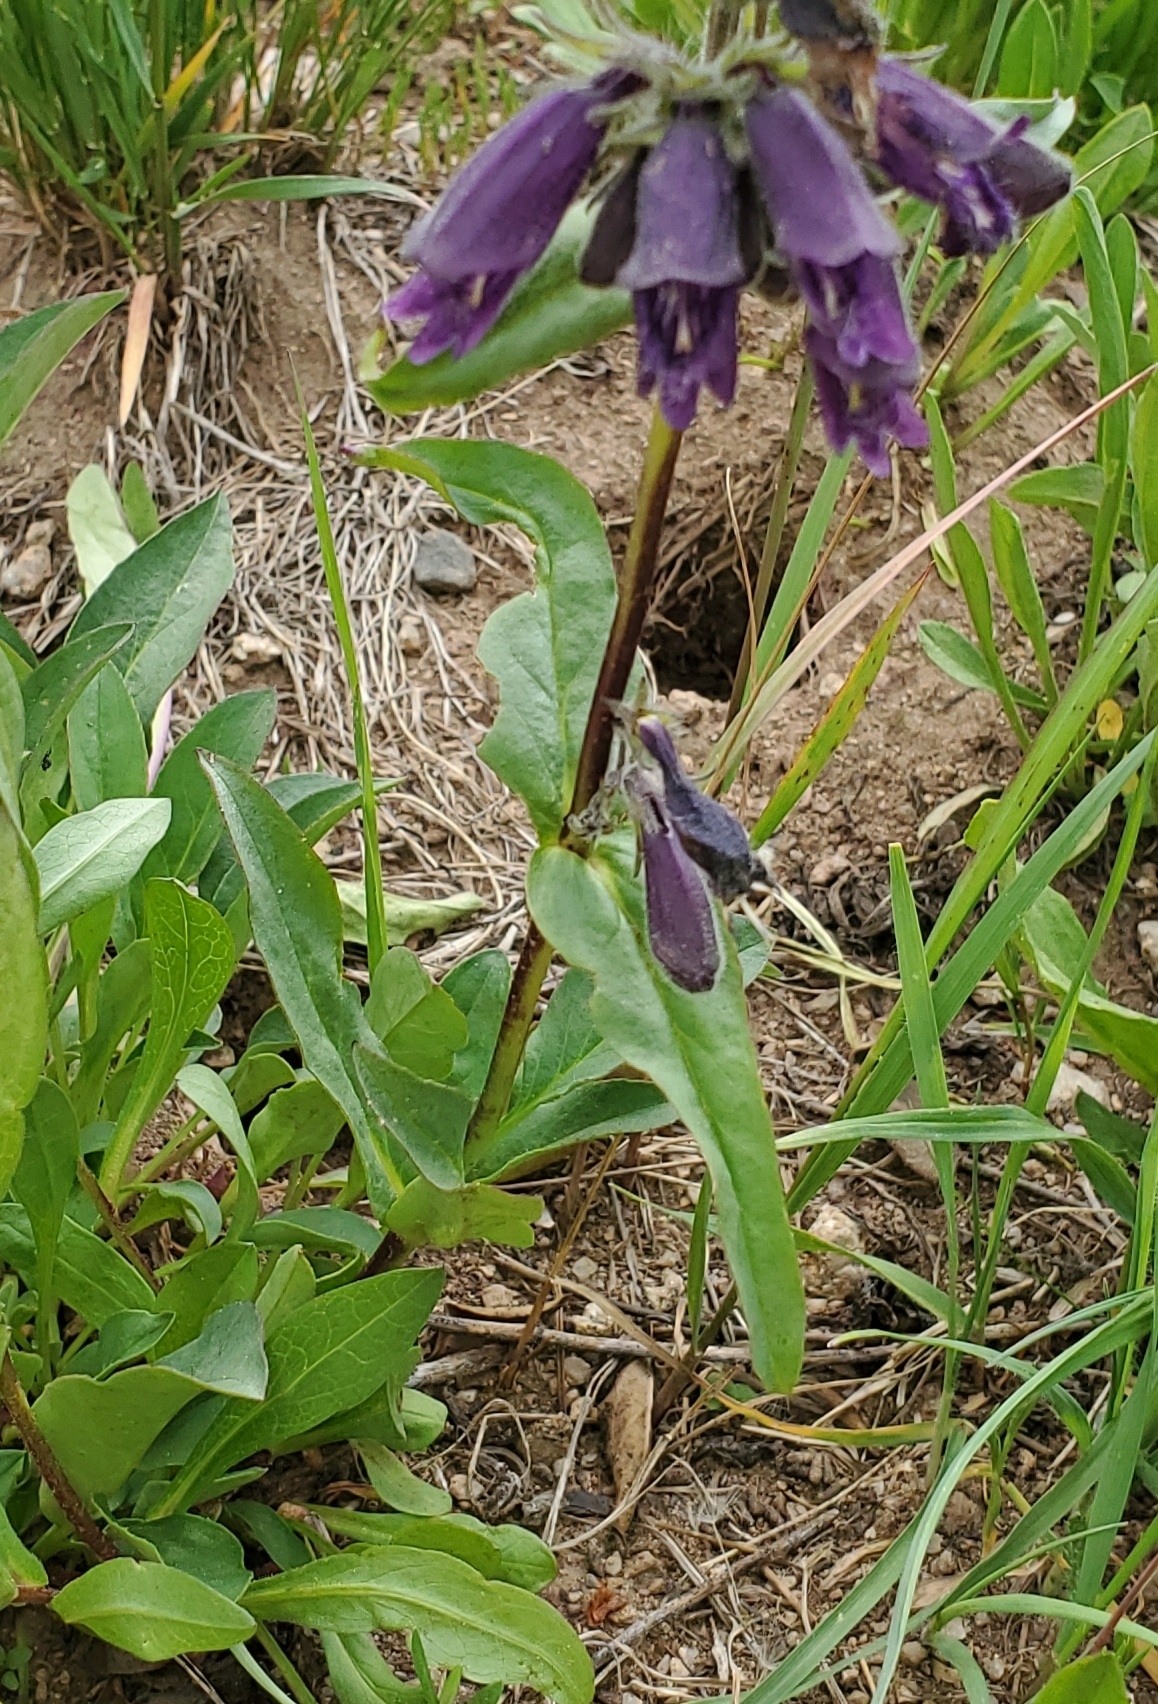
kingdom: Plantae
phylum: Tracheophyta
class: Magnoliopsida
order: Lamiales
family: Plantaginaceae
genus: Penstemon
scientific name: Penstemon whippleanus
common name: Whipple's penstemon
